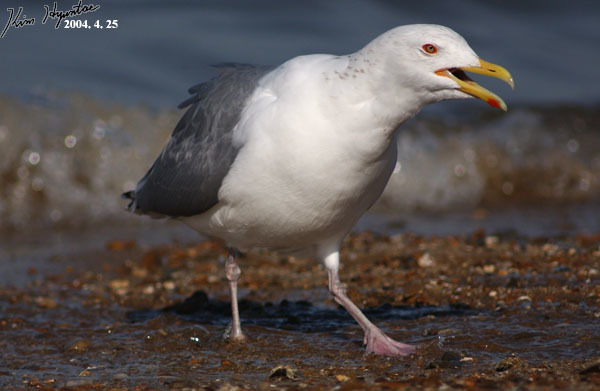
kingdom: Animalia
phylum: Chordata
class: Aves
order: Charadriiformes
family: Laridae
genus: Larus
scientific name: Larus vegae
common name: Vega gull
